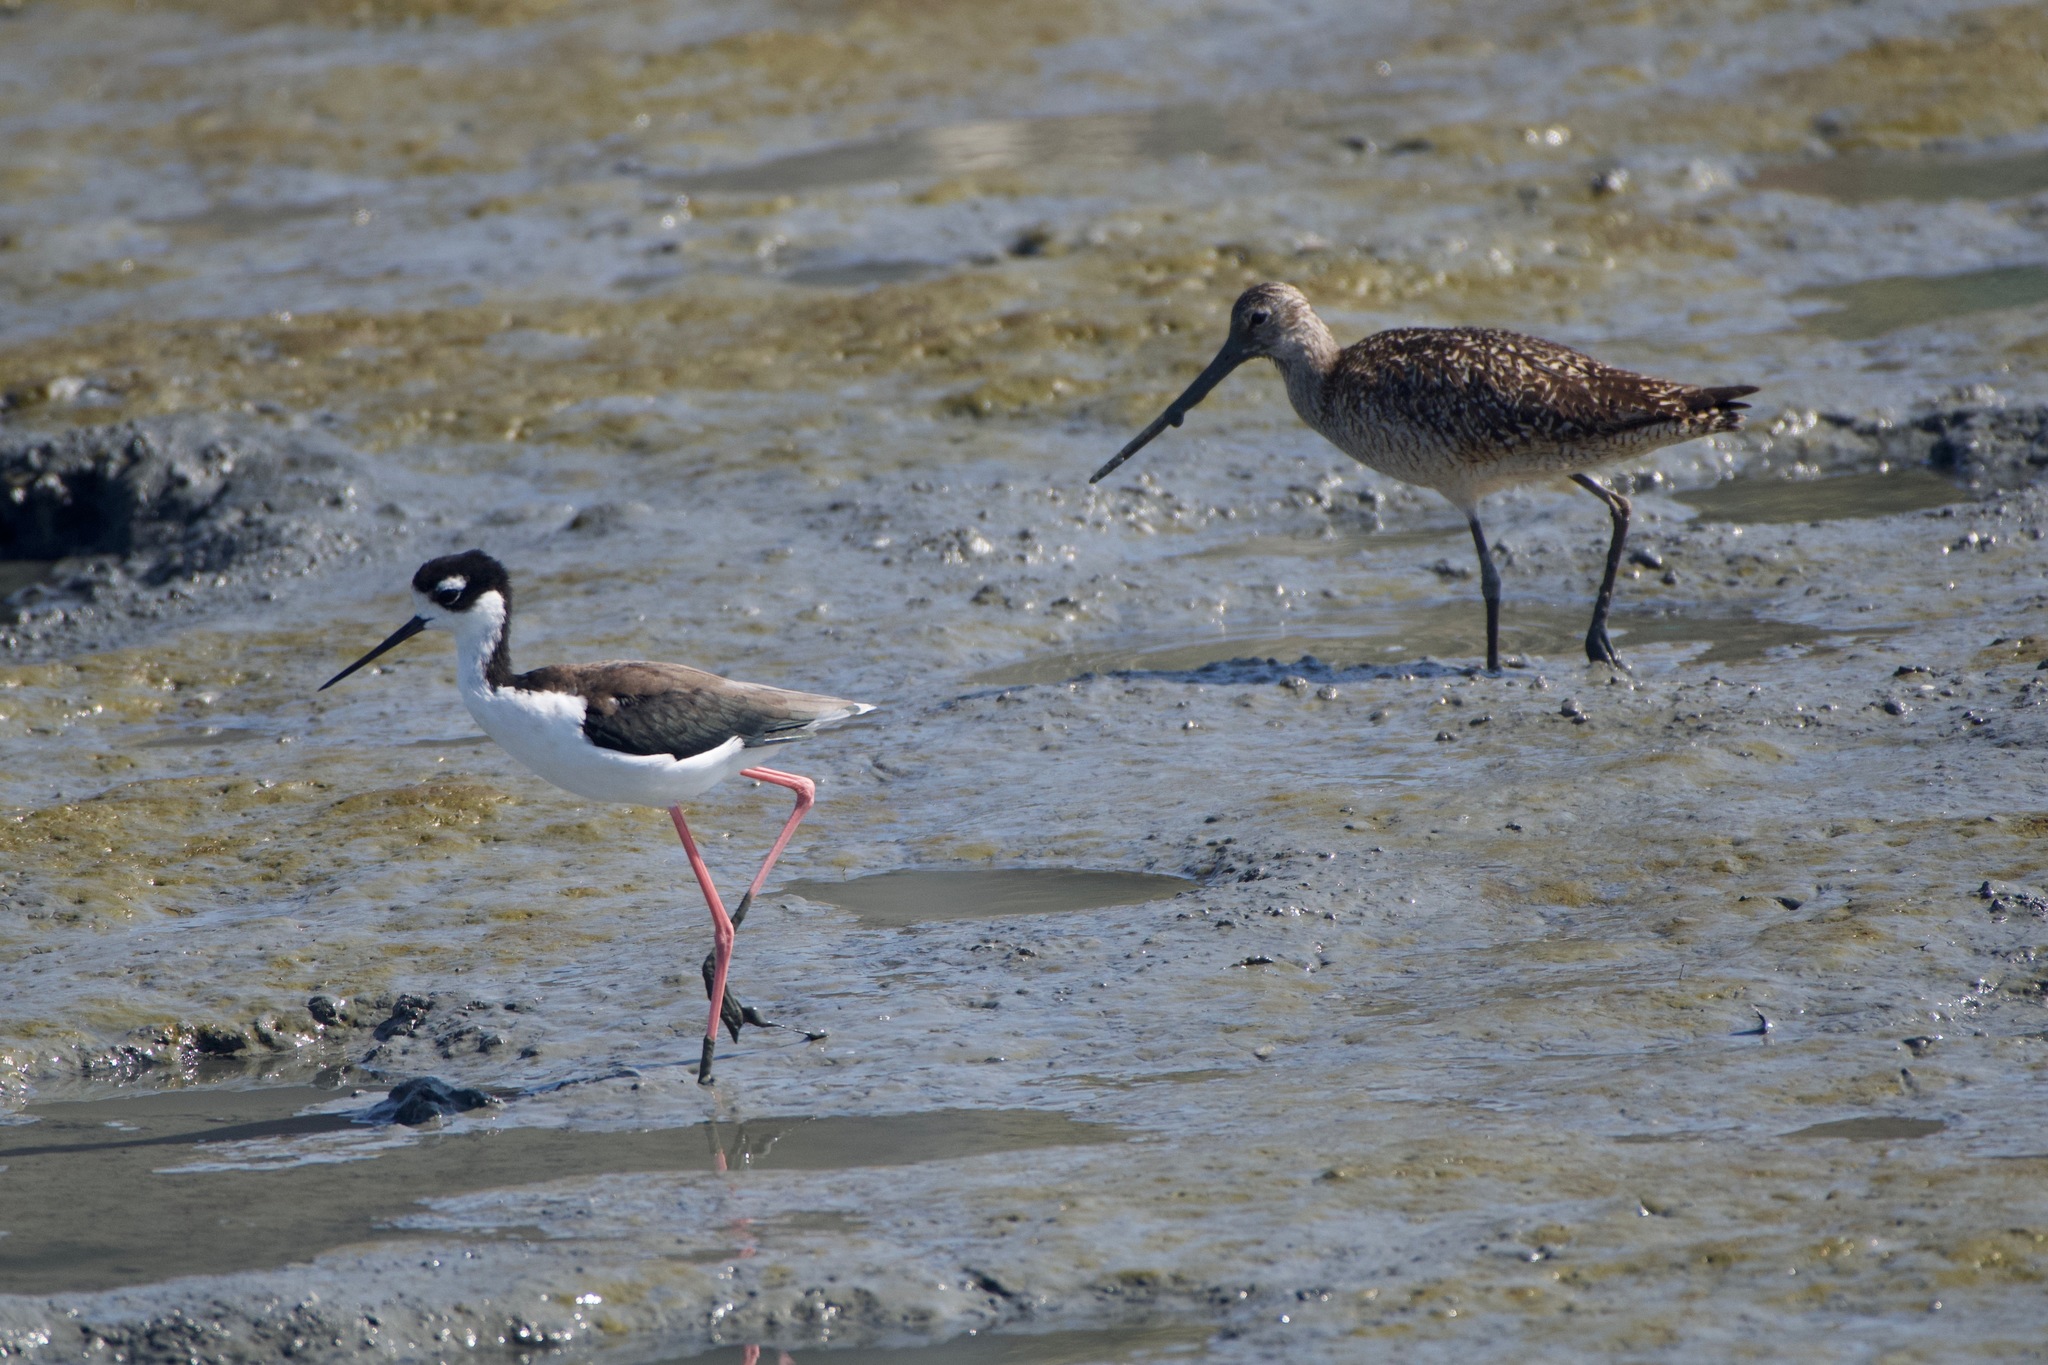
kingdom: Animalia
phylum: Chordata
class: Aves
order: Charadriiformes
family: Recurvirostridae
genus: Himantopus
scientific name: Himantopus mexicanus
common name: Black-necked stilt
